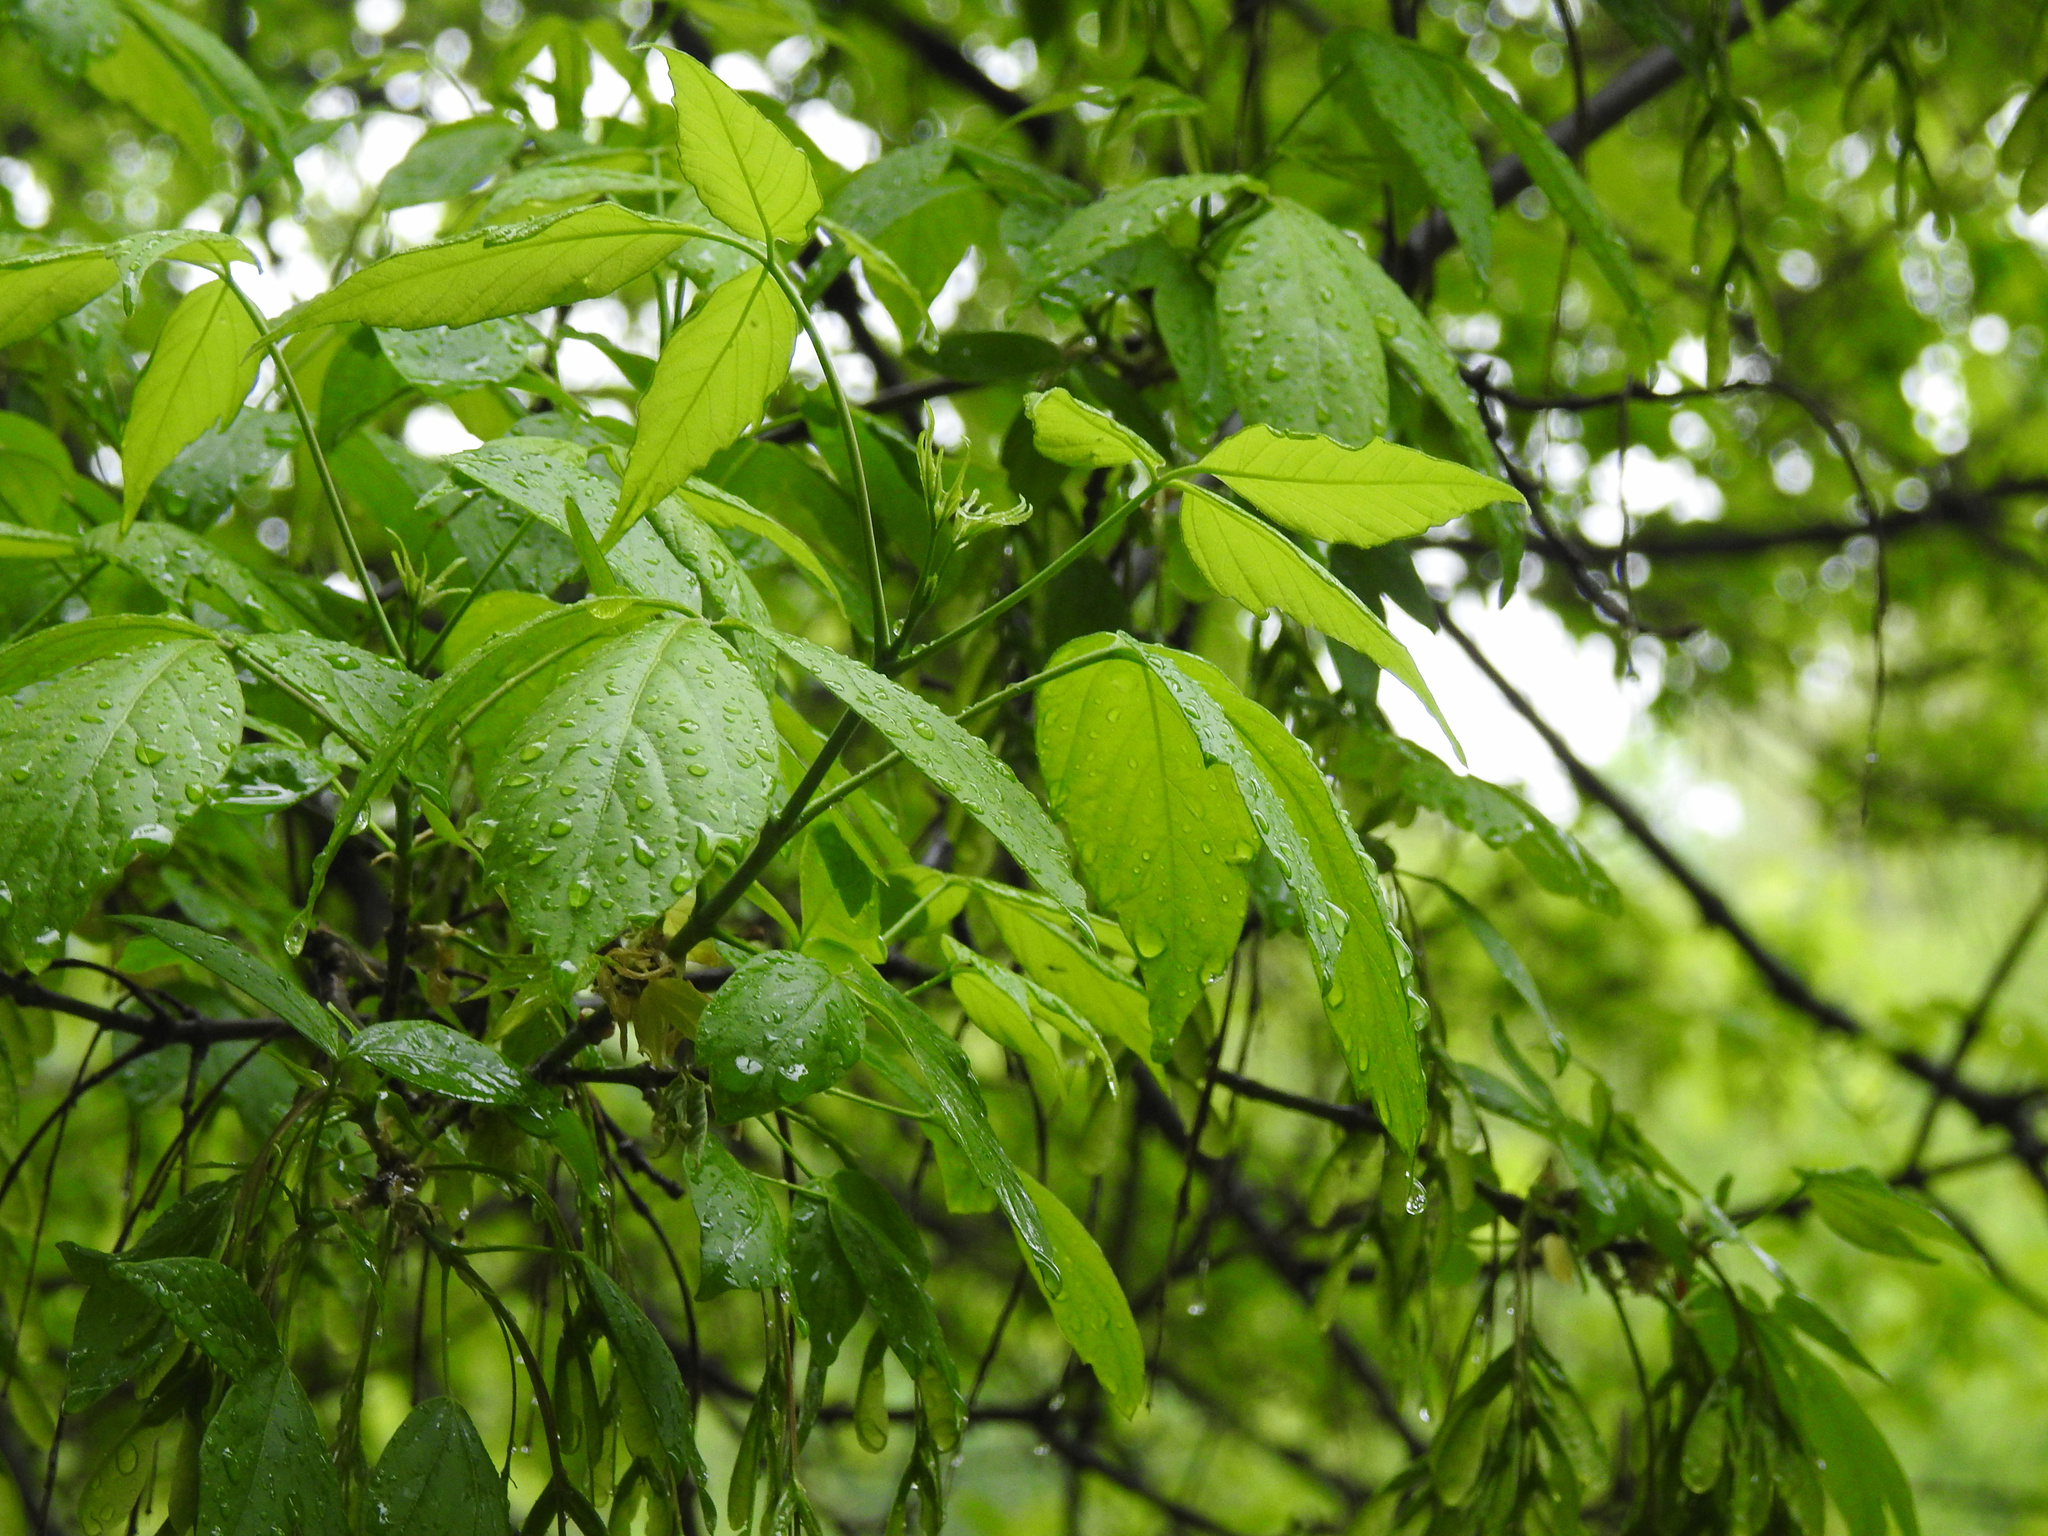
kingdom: Plantae
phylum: Tracheophyta
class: Magnoliopsida
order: Sapindales
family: Sapindaceae
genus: Acer
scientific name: Acer negundo
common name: Ashleaf maple
